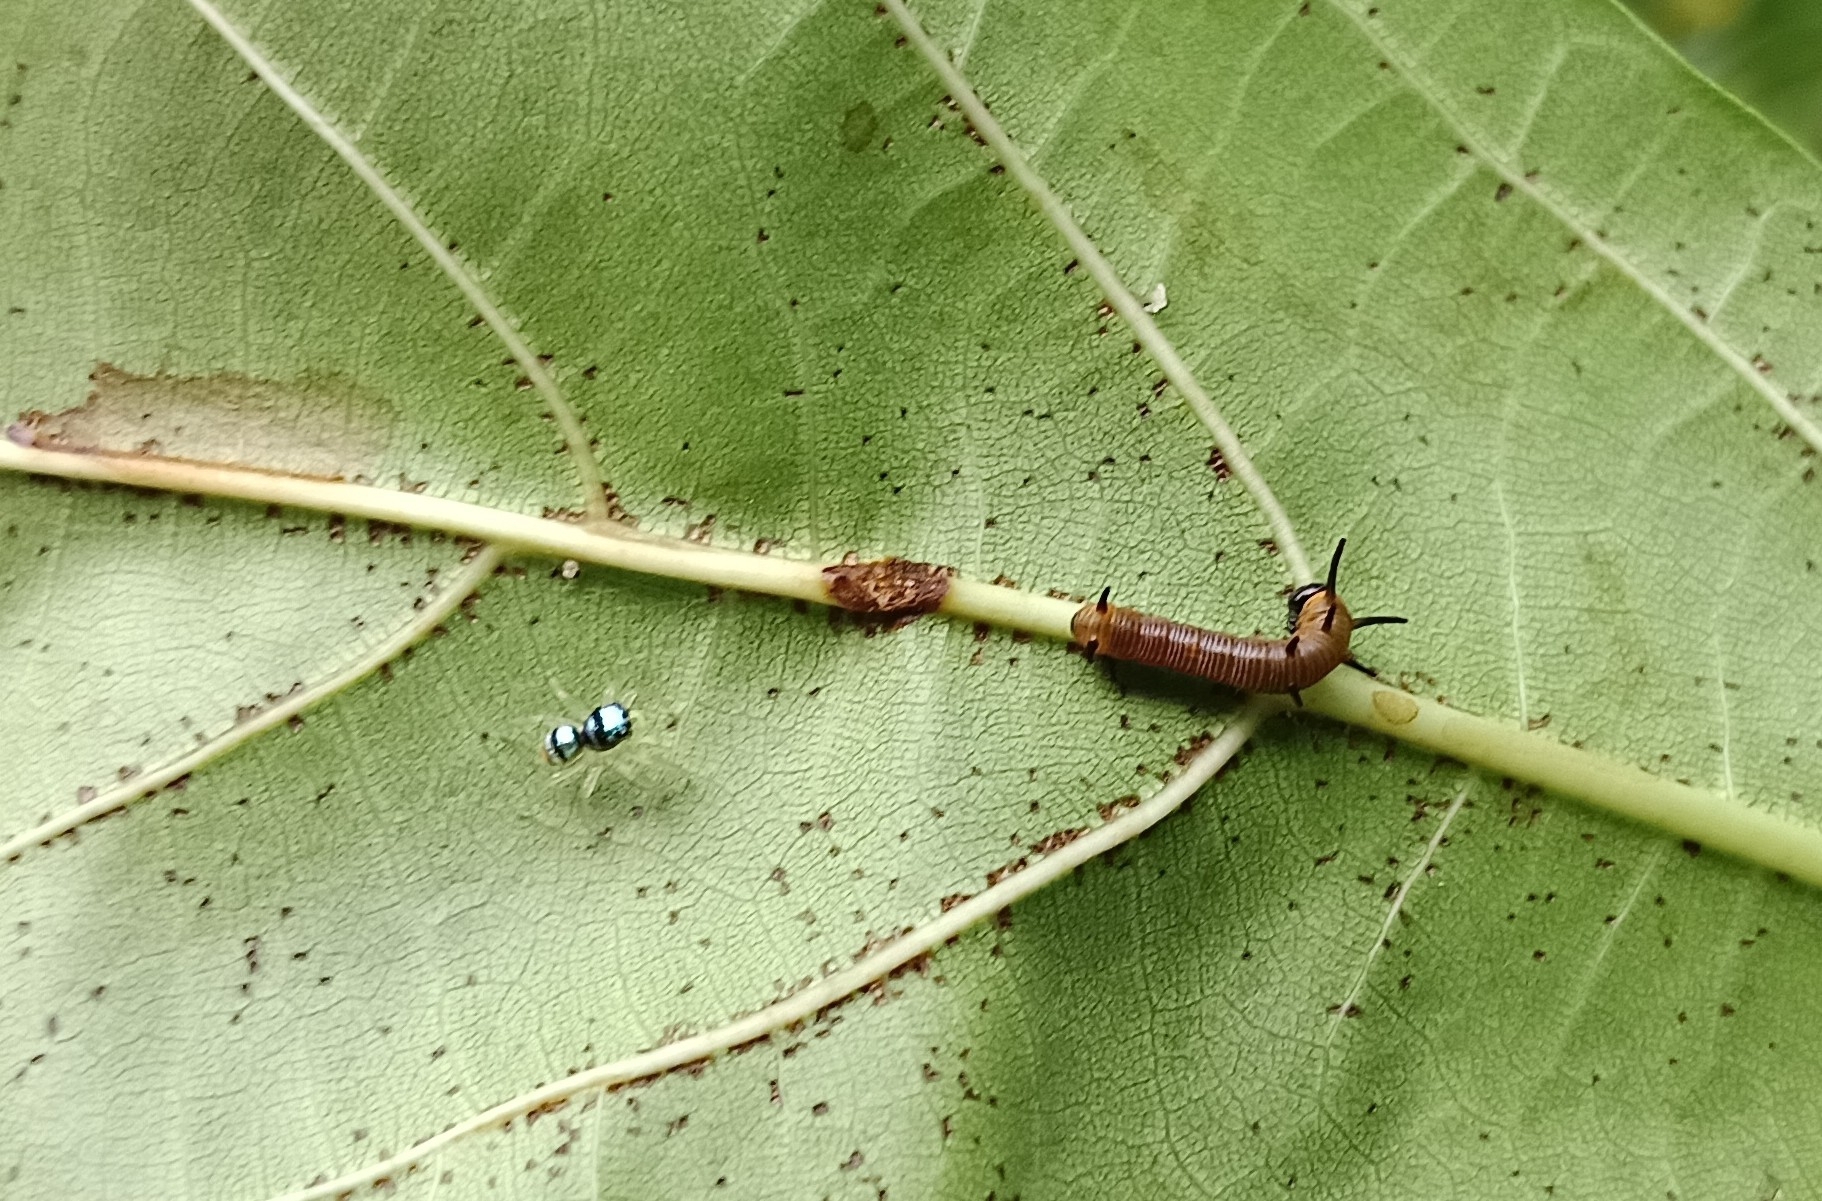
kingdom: Animalia
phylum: Arthropoda
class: Insecta
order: Lepidoptera
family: Nymphalidae
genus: Euploea
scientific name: Euploea core
